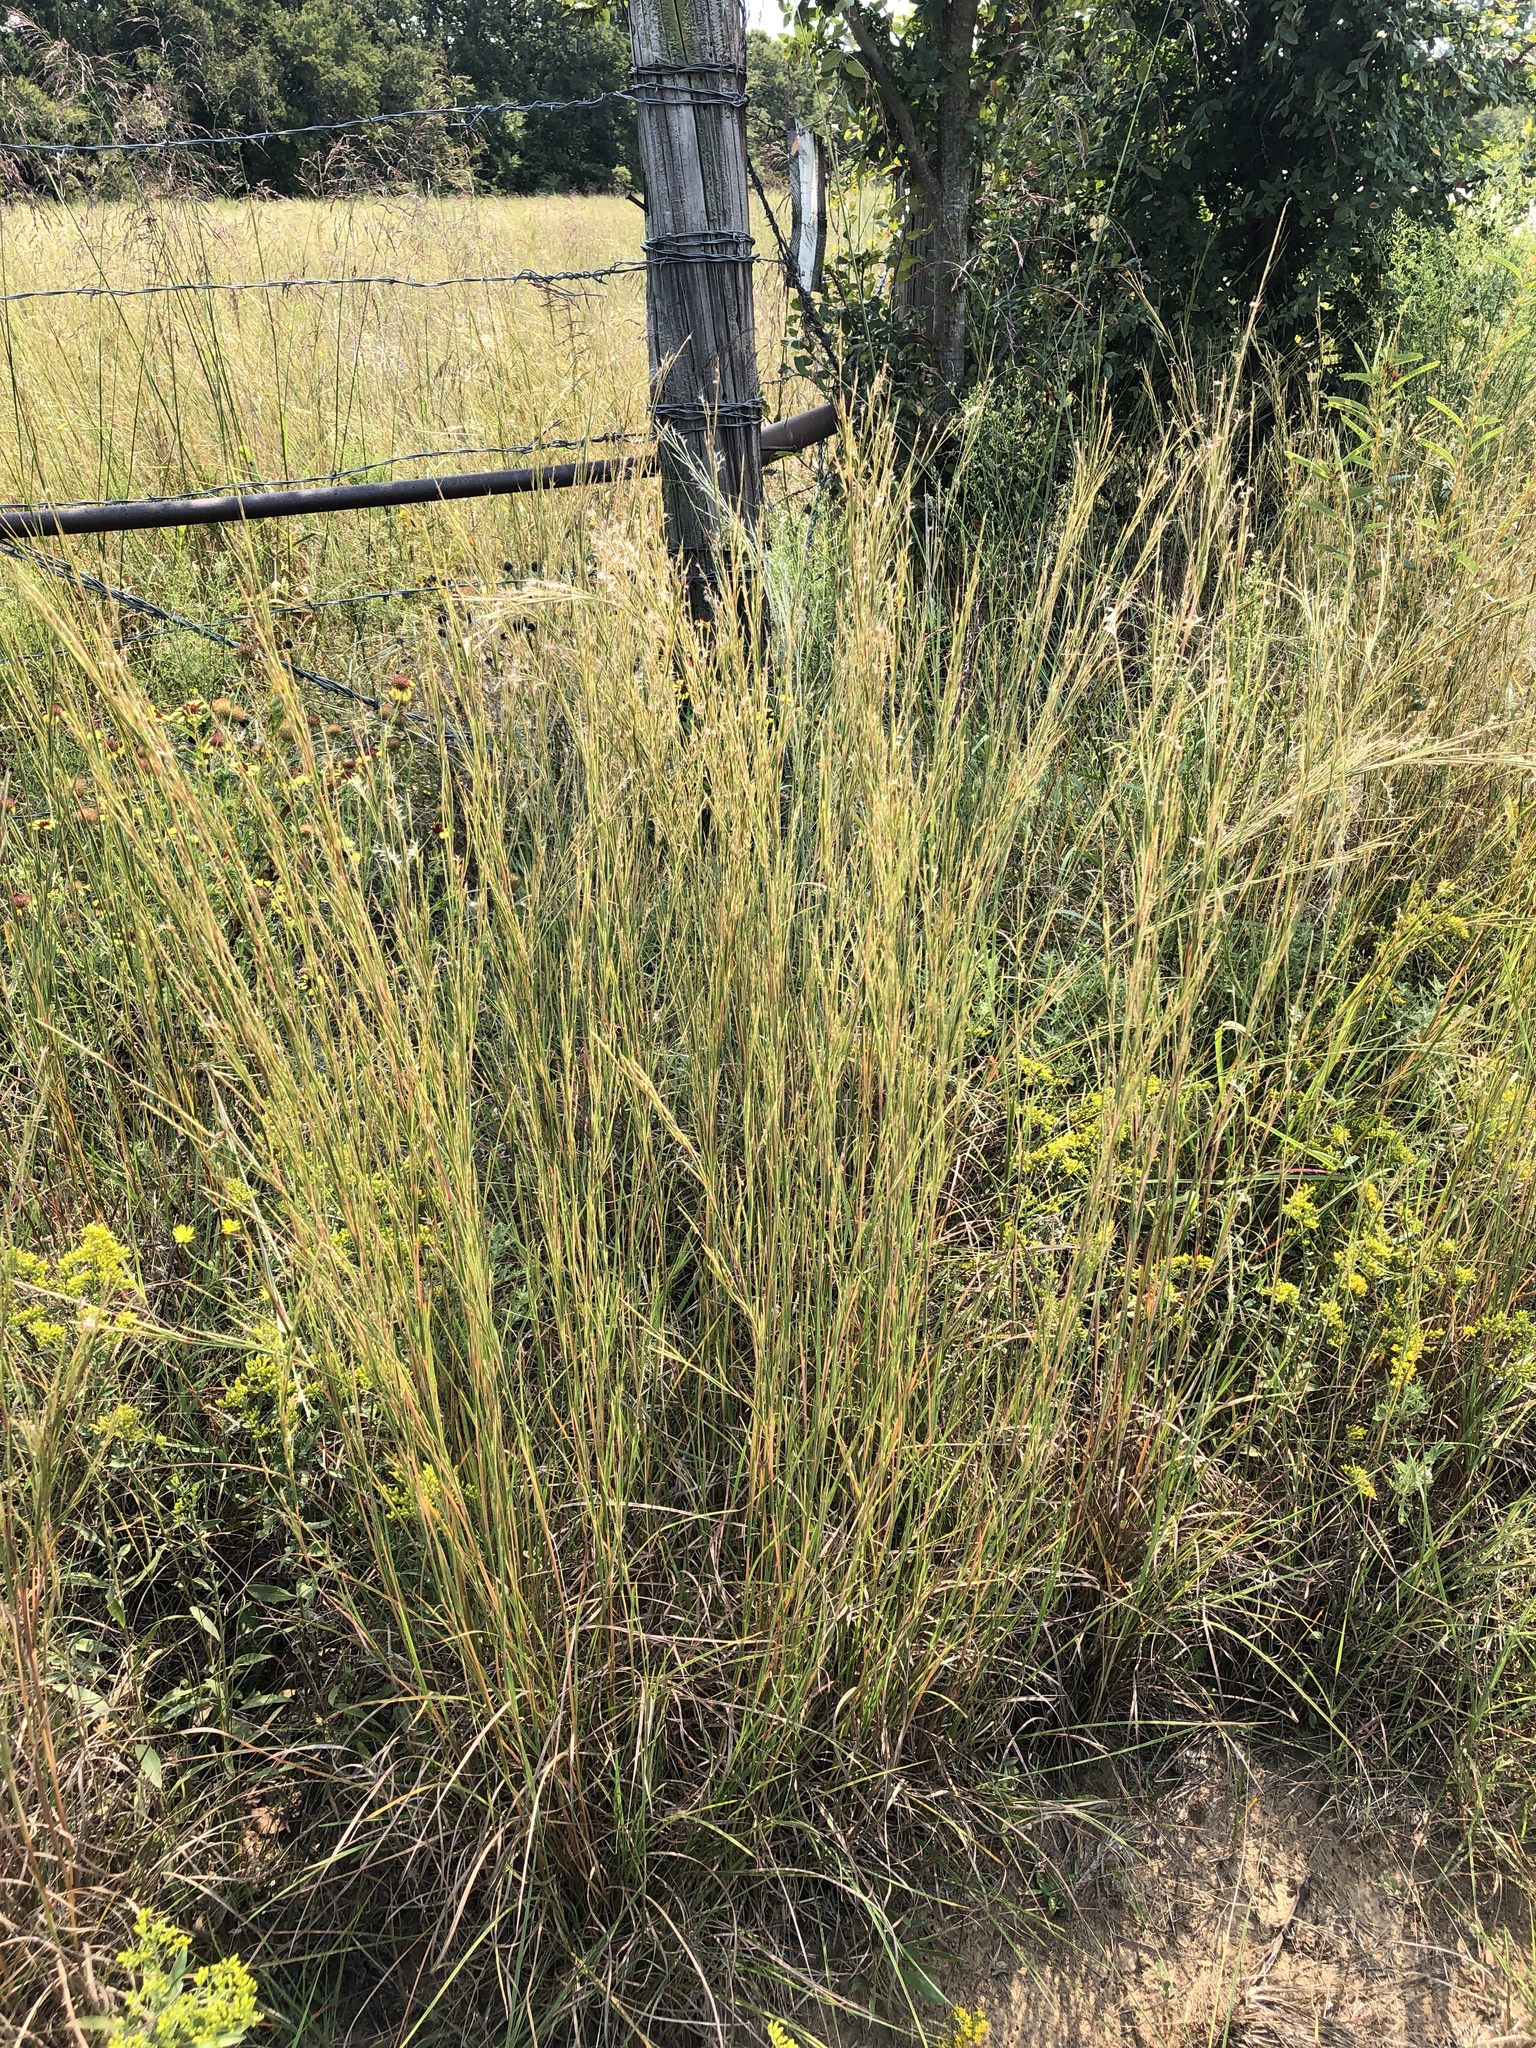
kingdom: Plantae
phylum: Tracheophyta
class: Liliopsida
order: Poales
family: Poaceae
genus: Schizachyrium
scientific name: Schizachyrium scoparium
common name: Little bluestem
